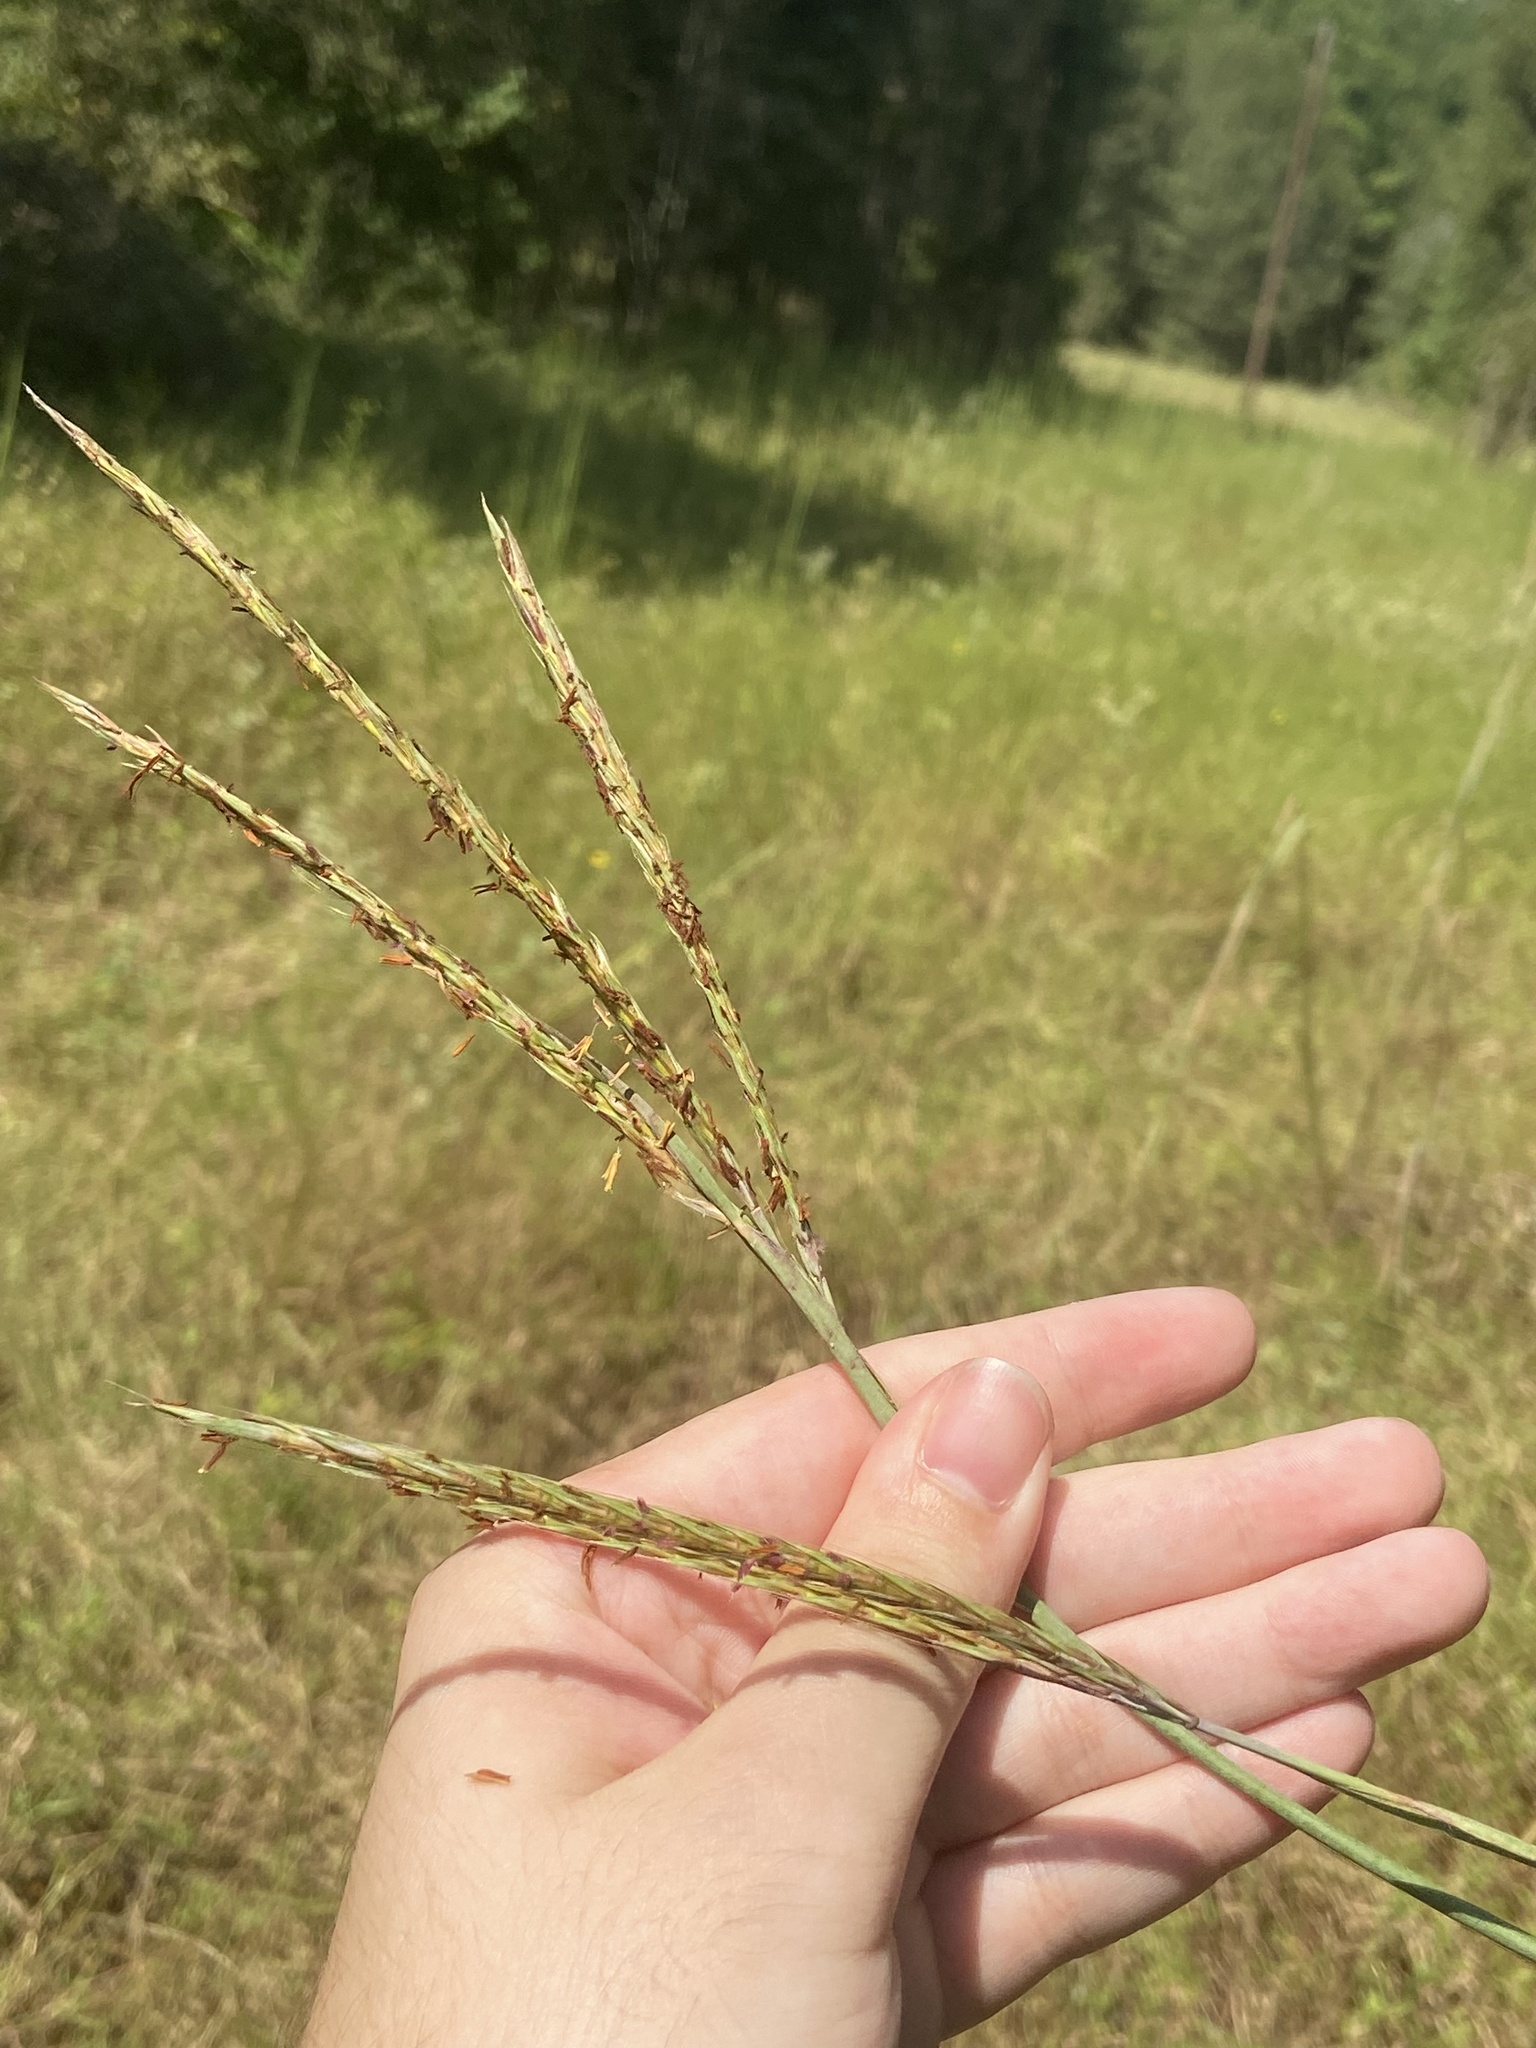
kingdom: Plantae
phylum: Tracheophyta
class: Liliopsida
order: Poales
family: Poaceae
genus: Andropogon
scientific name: Andropogon gerardi
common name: Big bluestem
